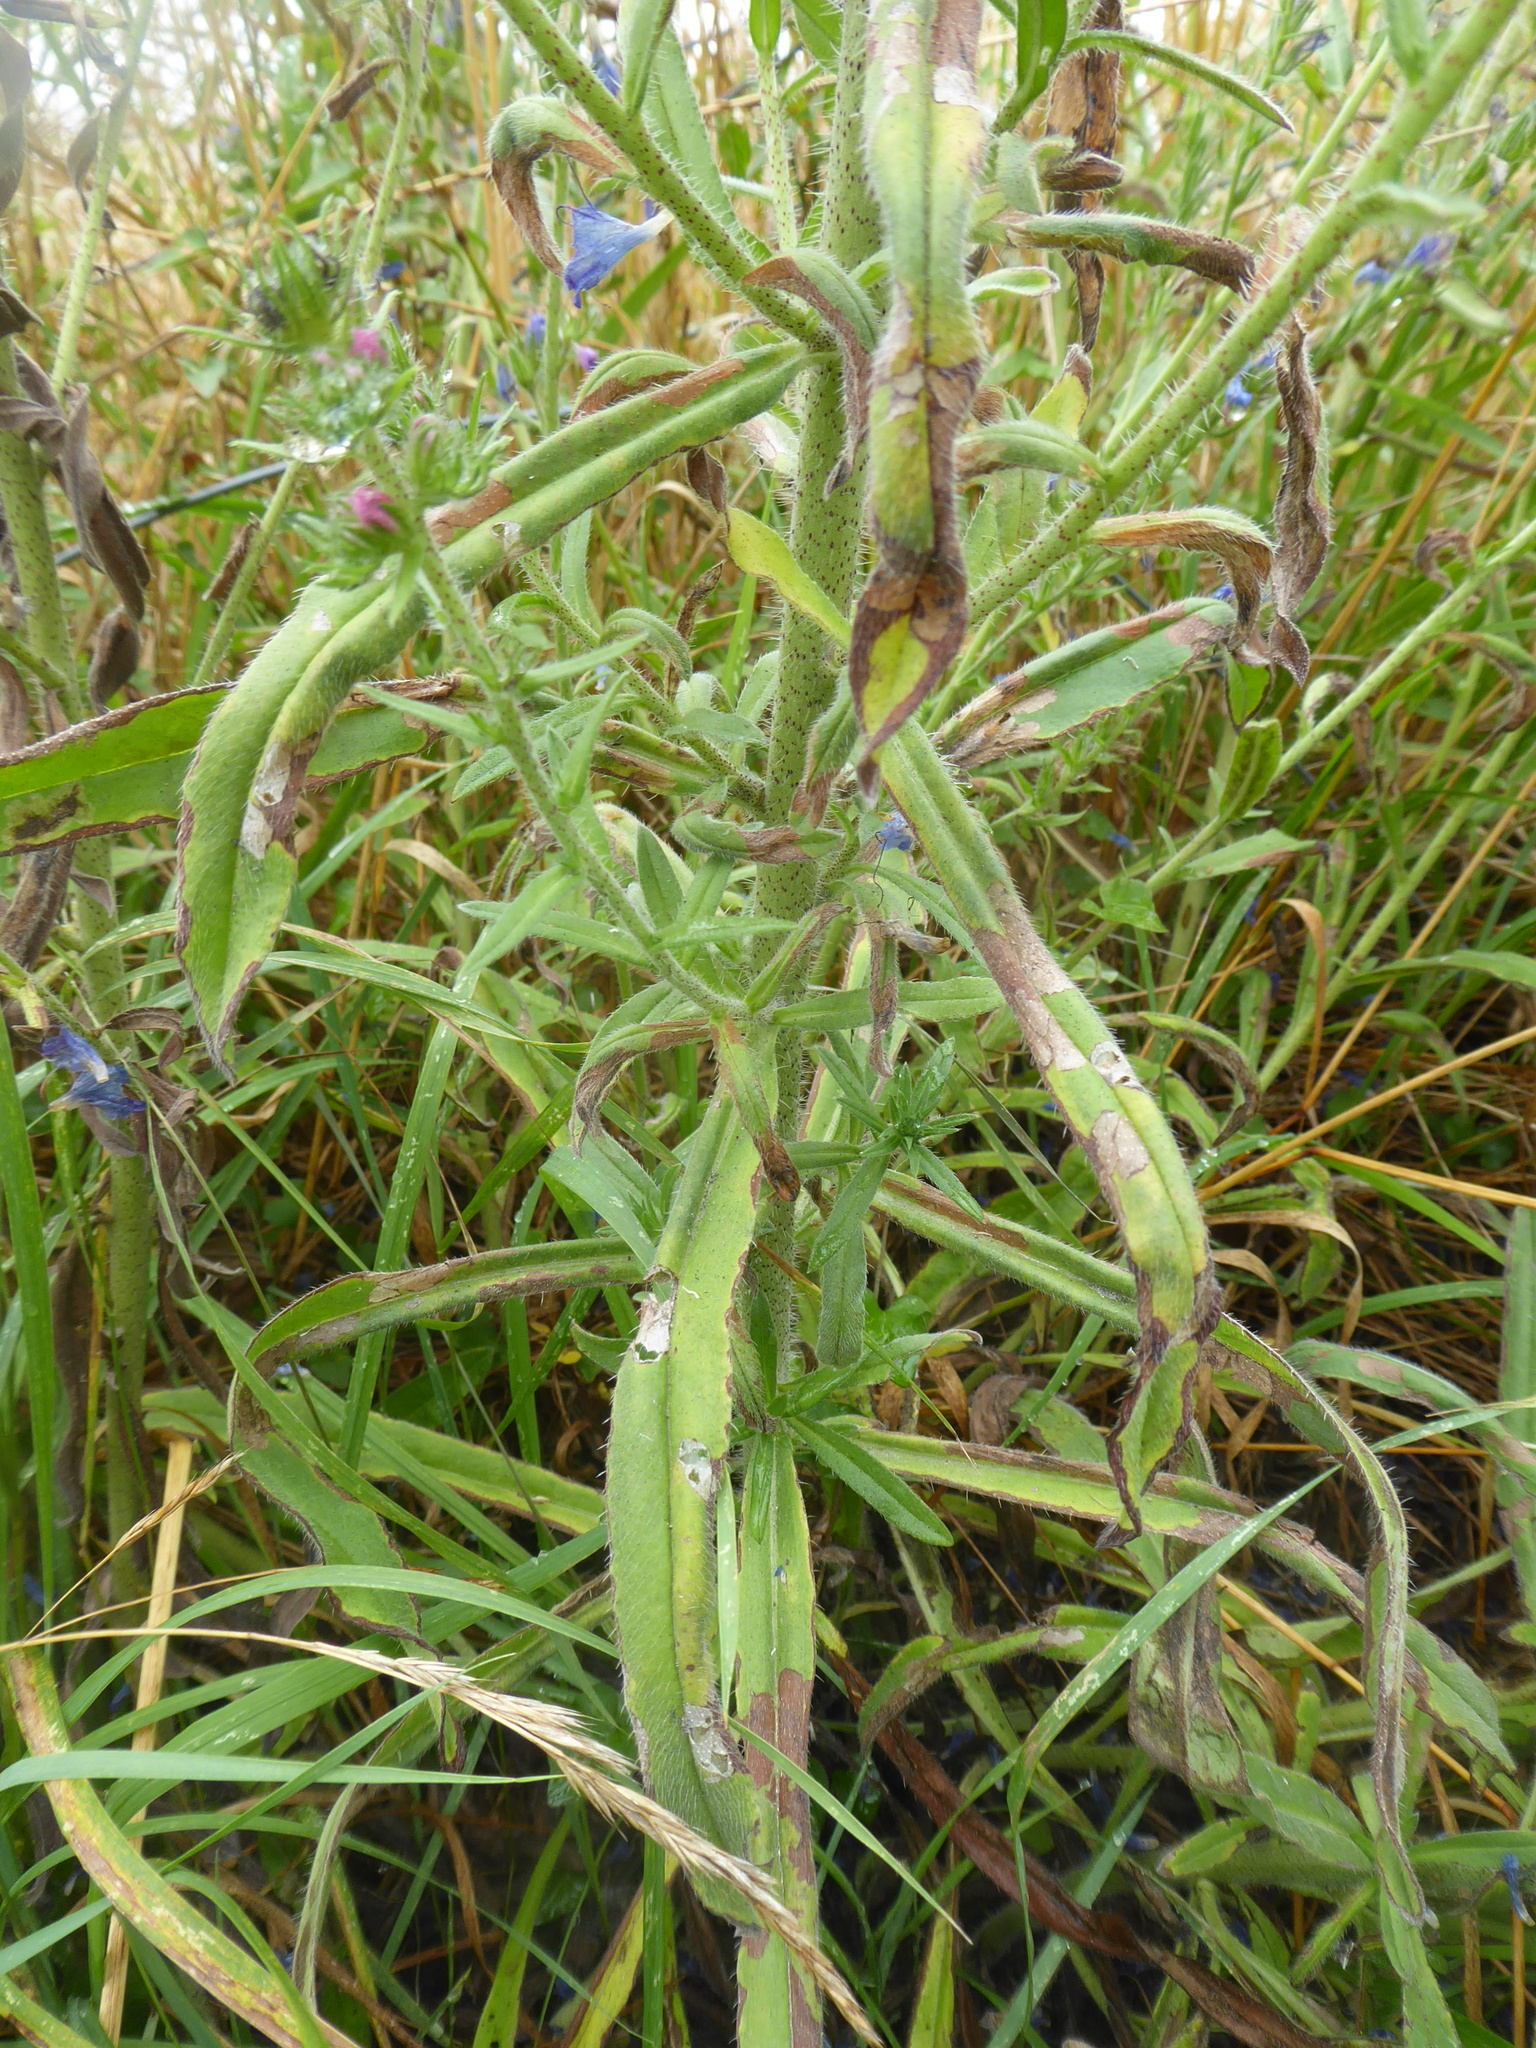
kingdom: Plantae
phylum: Tracheophyta
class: Magnoliopsida
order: Boraginales
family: Boraginaceae
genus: Echium
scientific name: Echium vulgare
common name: Common viper's bugloss
